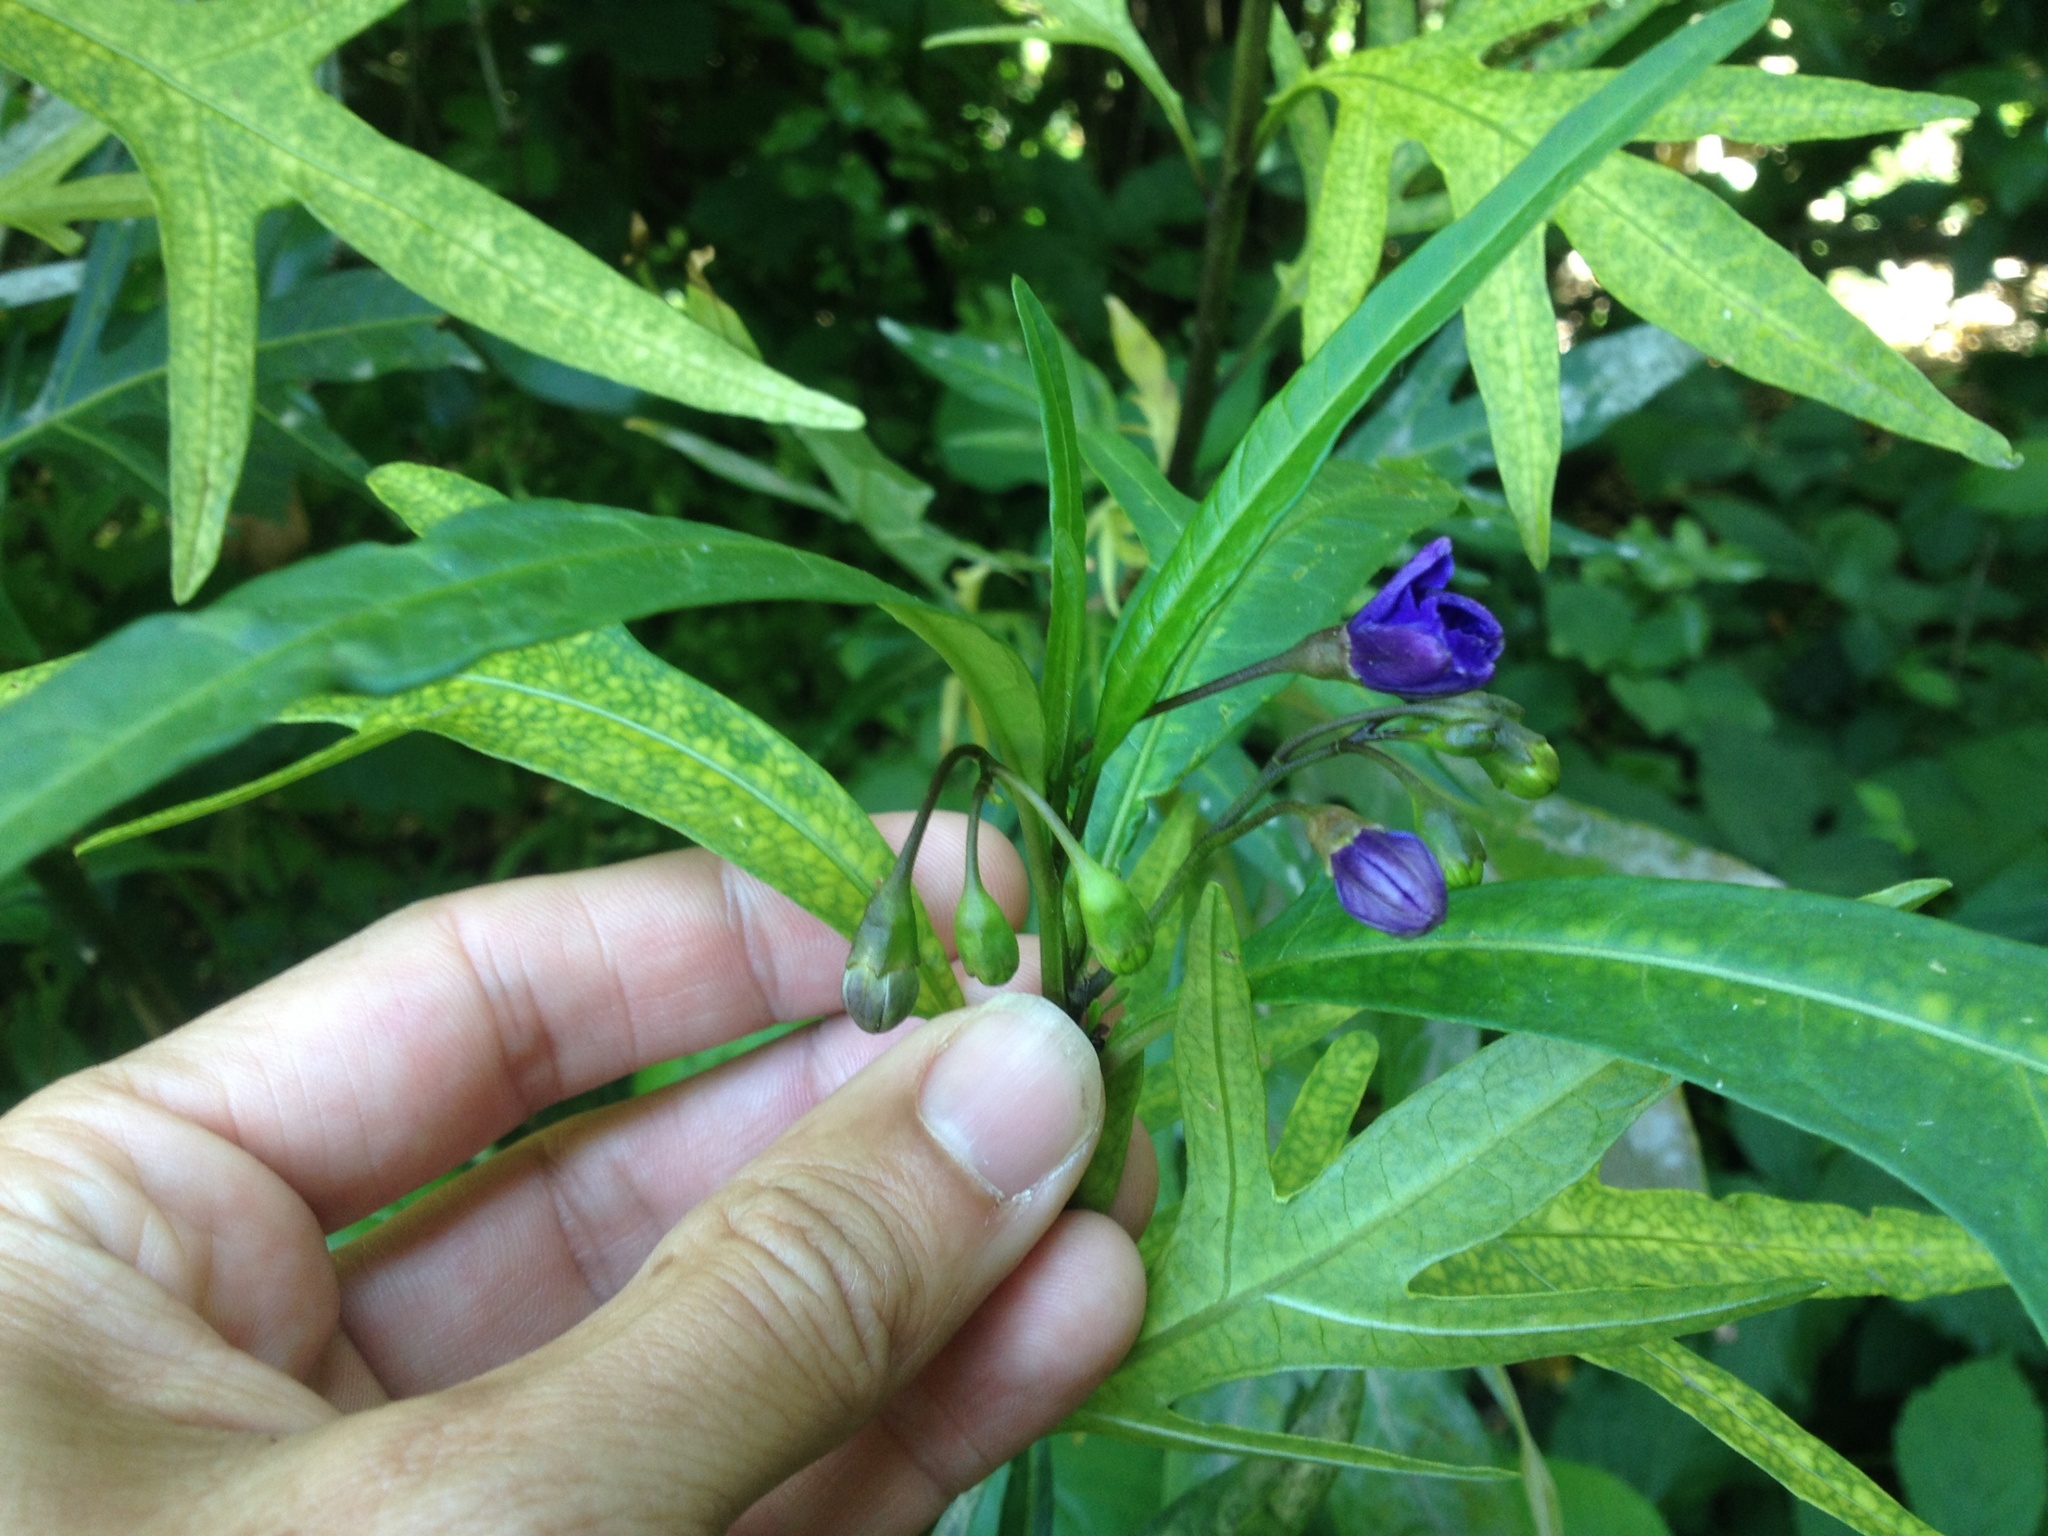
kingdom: Plantae
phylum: Tracheophyta
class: Magnoliopsida
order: Solanales
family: Solanaceae
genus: Solanum
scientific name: Solanum laciniatum
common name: Kangaroo-apple
